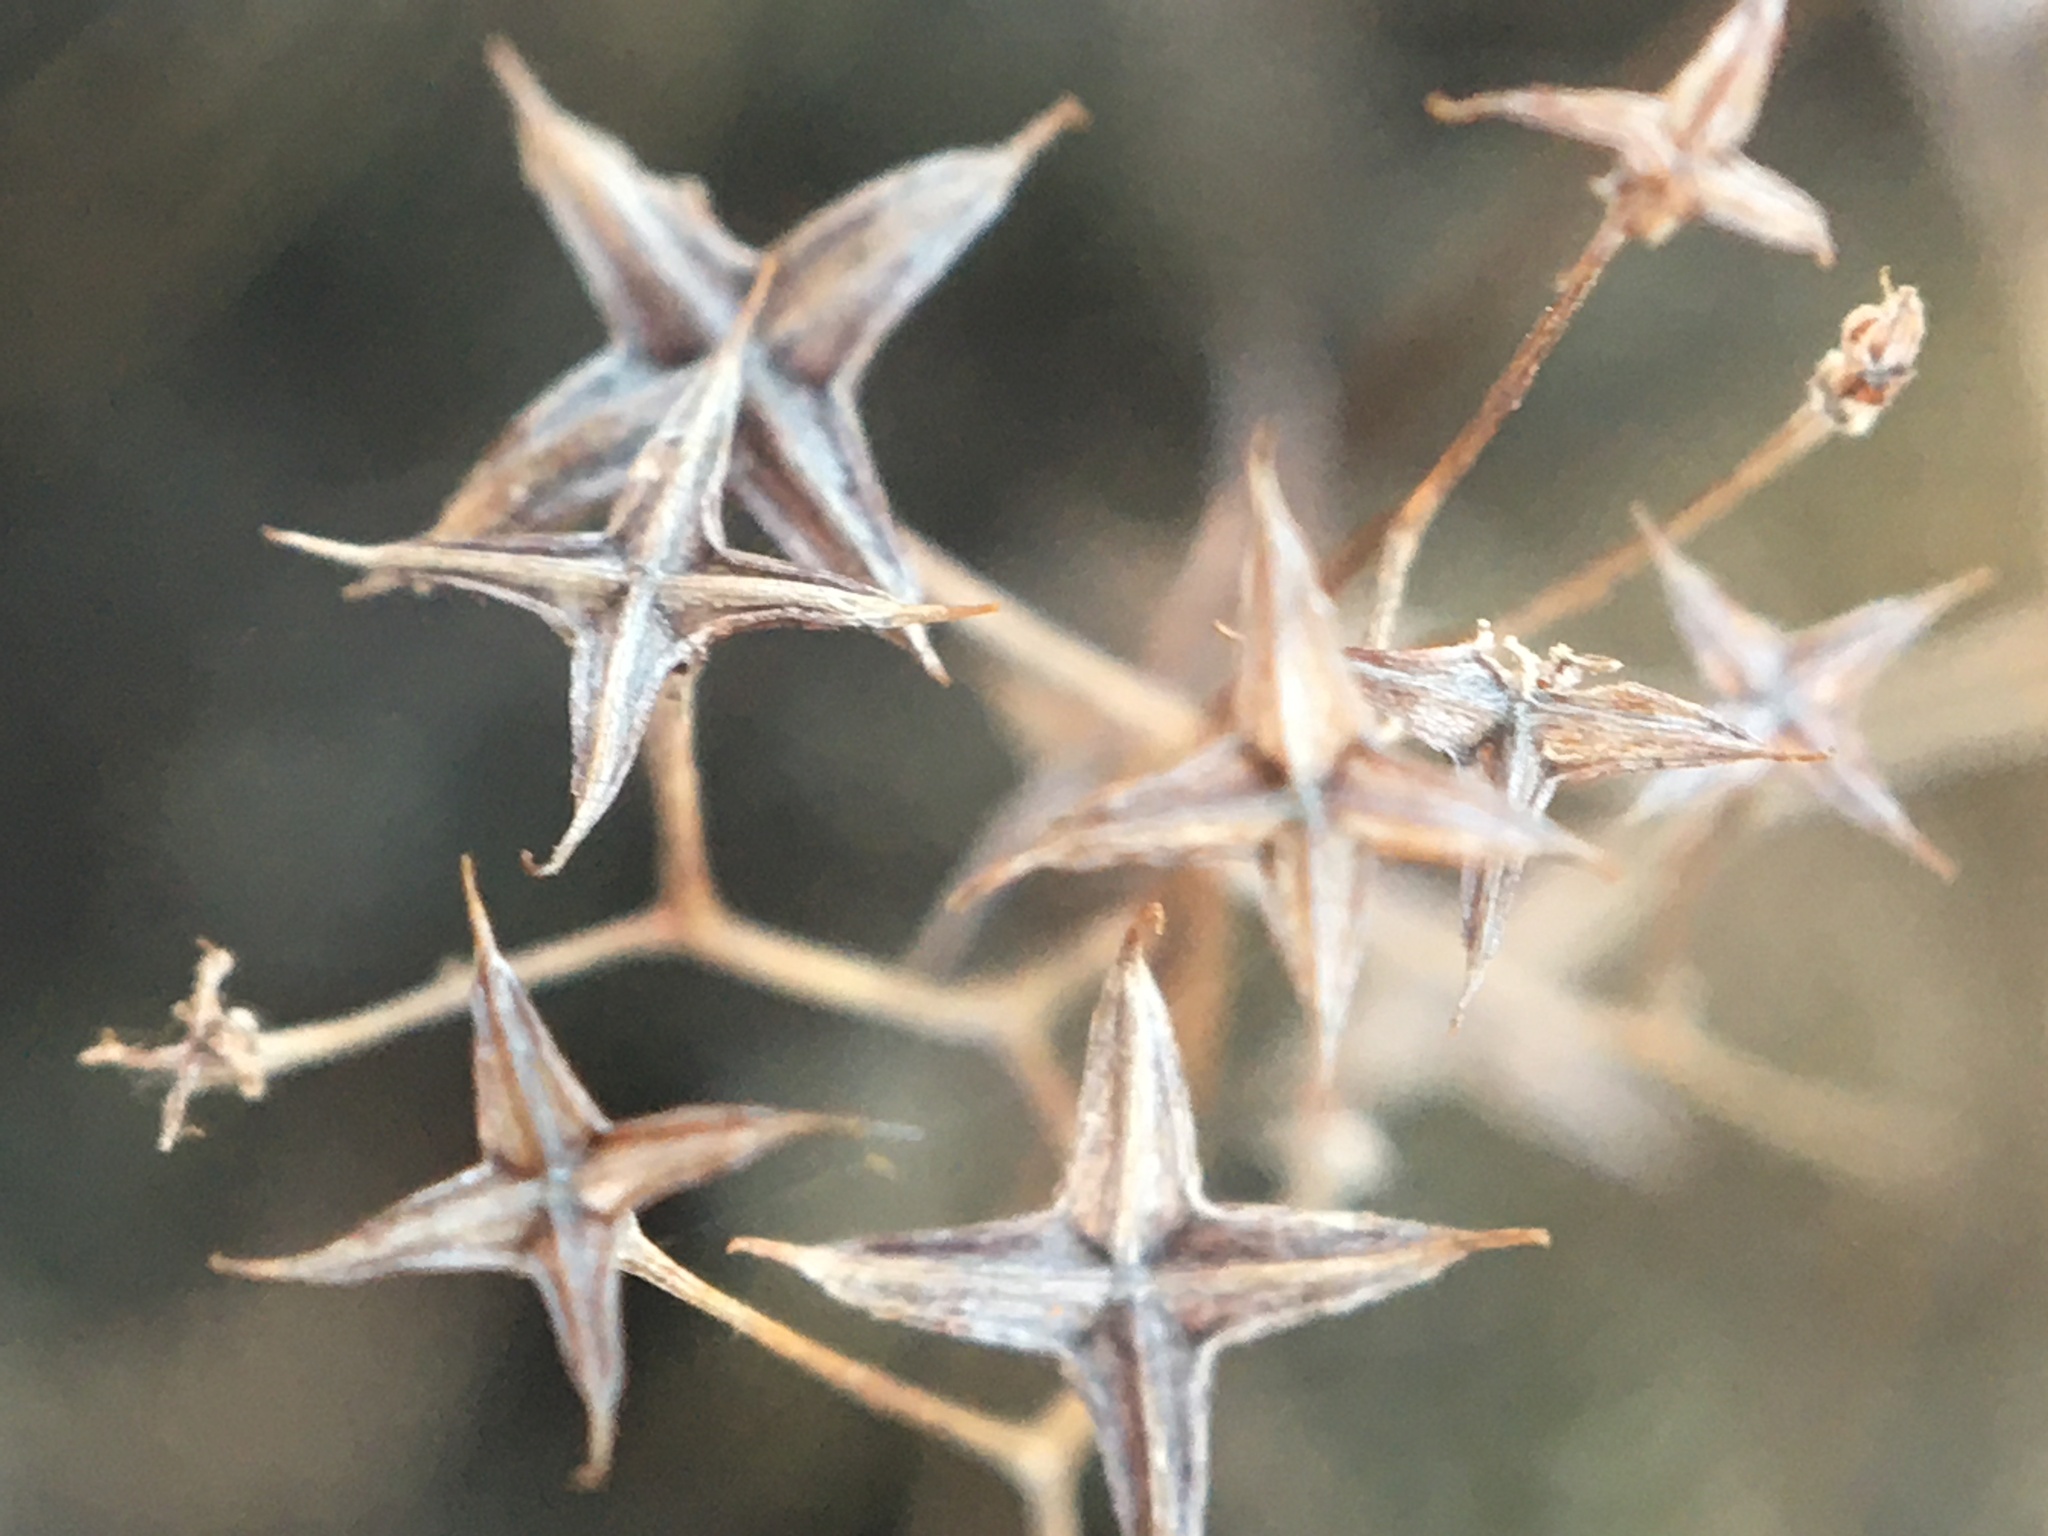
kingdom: Plantae
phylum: Tracheophyta
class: Magnoliopsida
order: Saxifragales
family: Crassulaceae
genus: Sedum
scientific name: Sedum smallii
